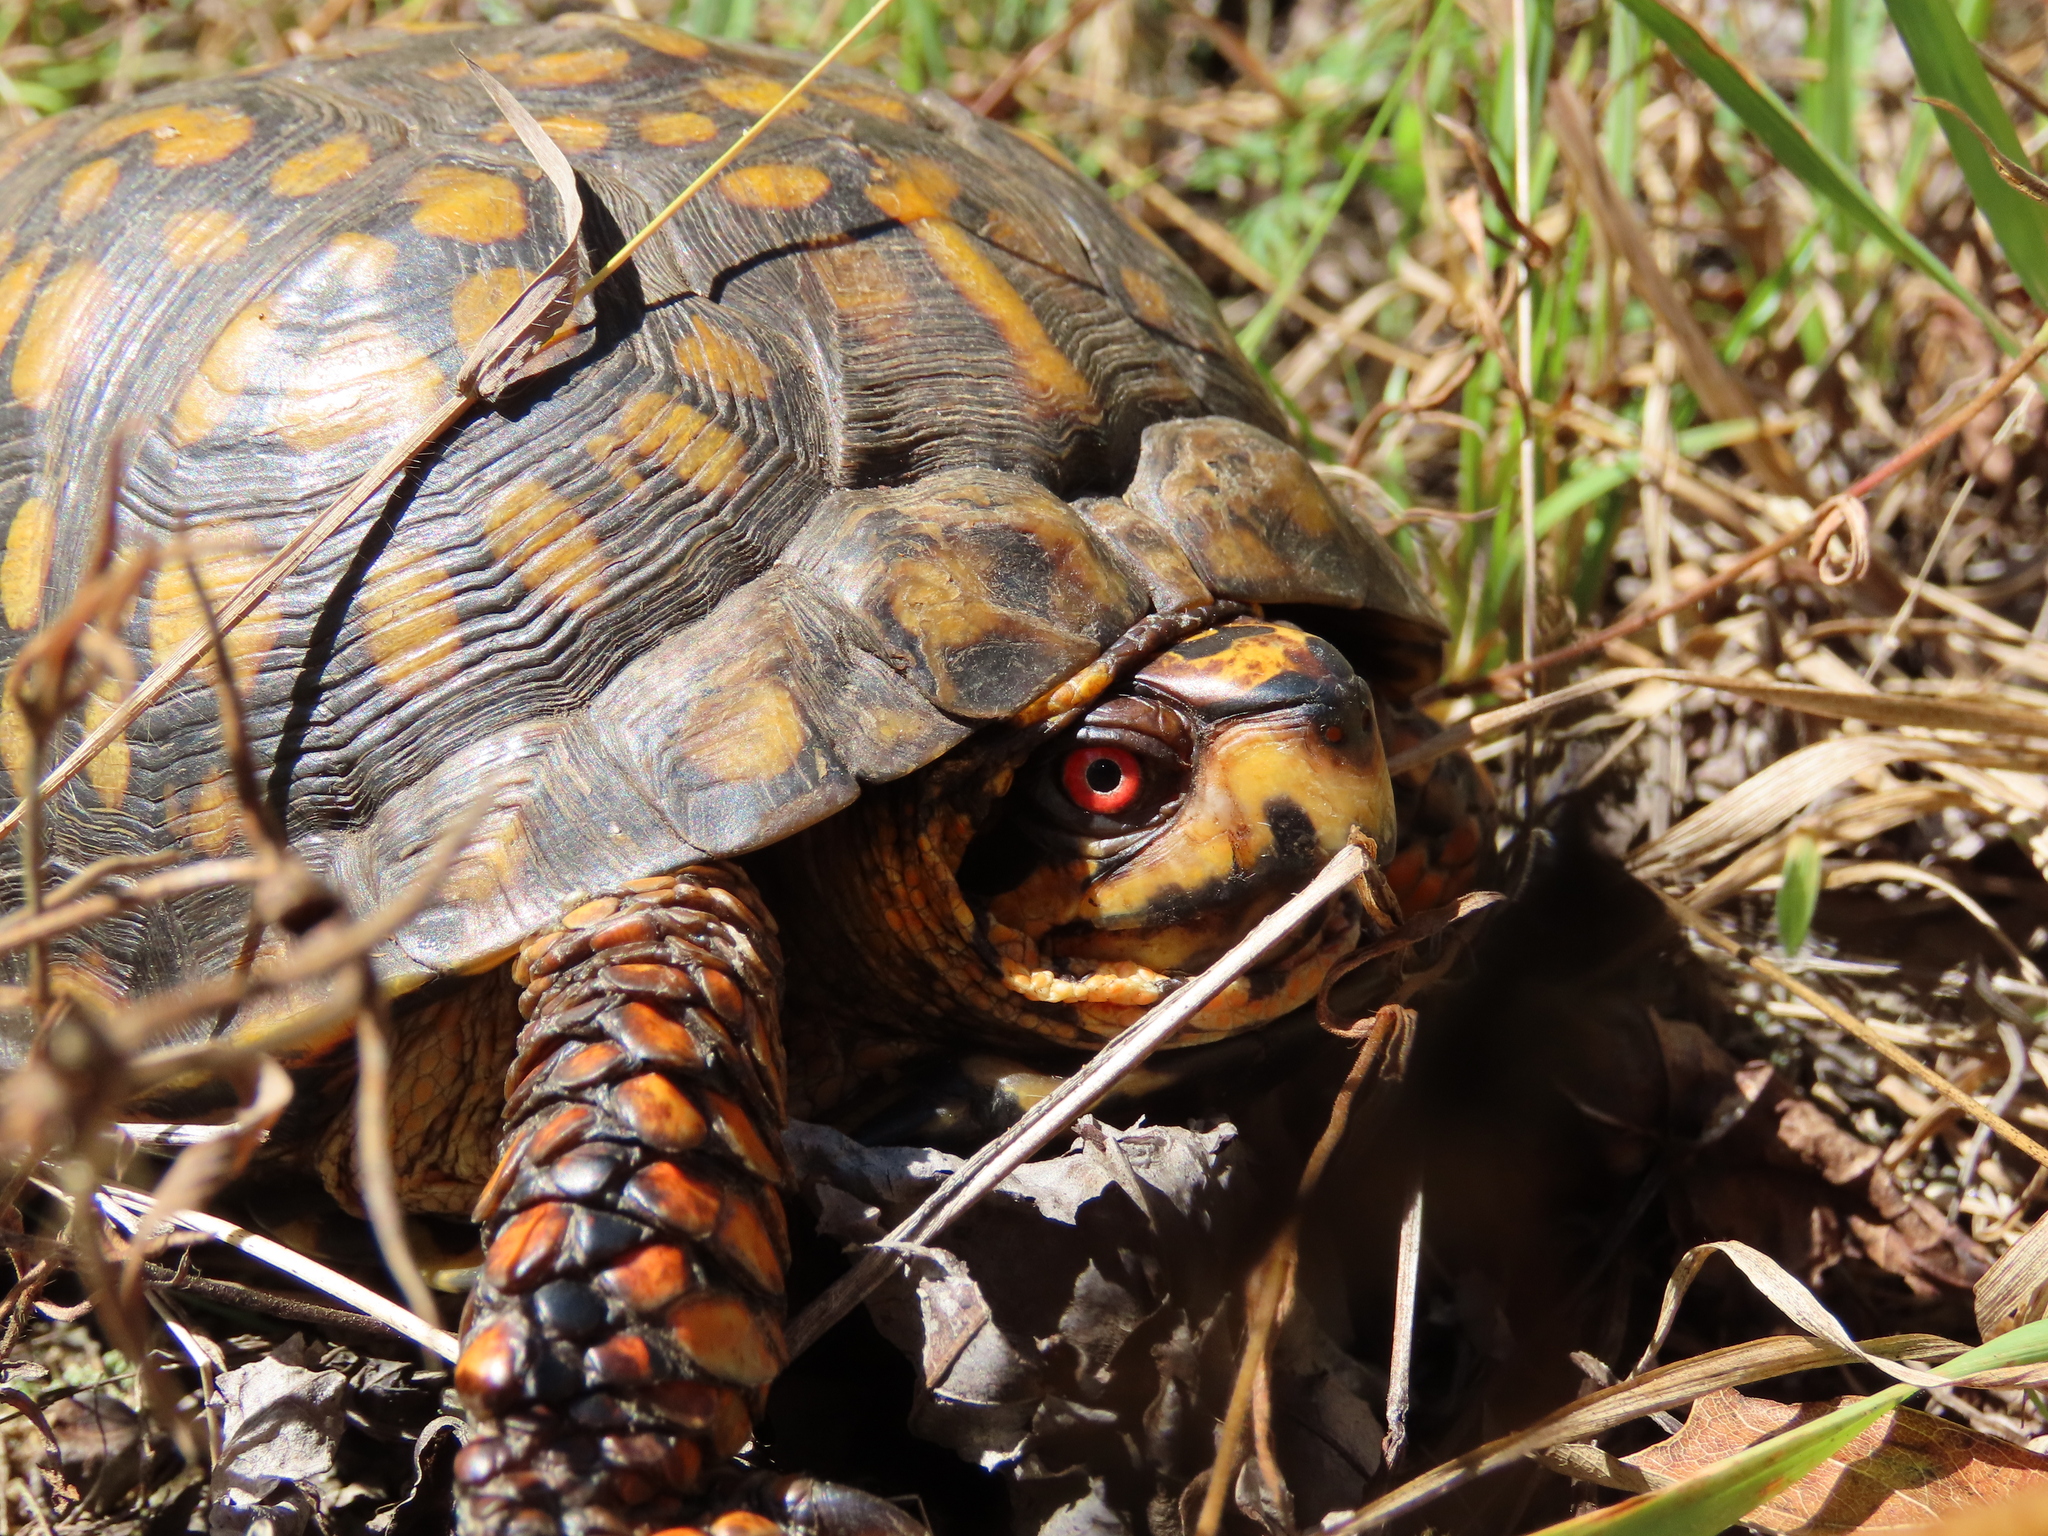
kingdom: Animalia
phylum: Chordata
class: Testudines
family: Emydidae
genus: Terrapene
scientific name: Terrapene carolina
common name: Common box turtle
